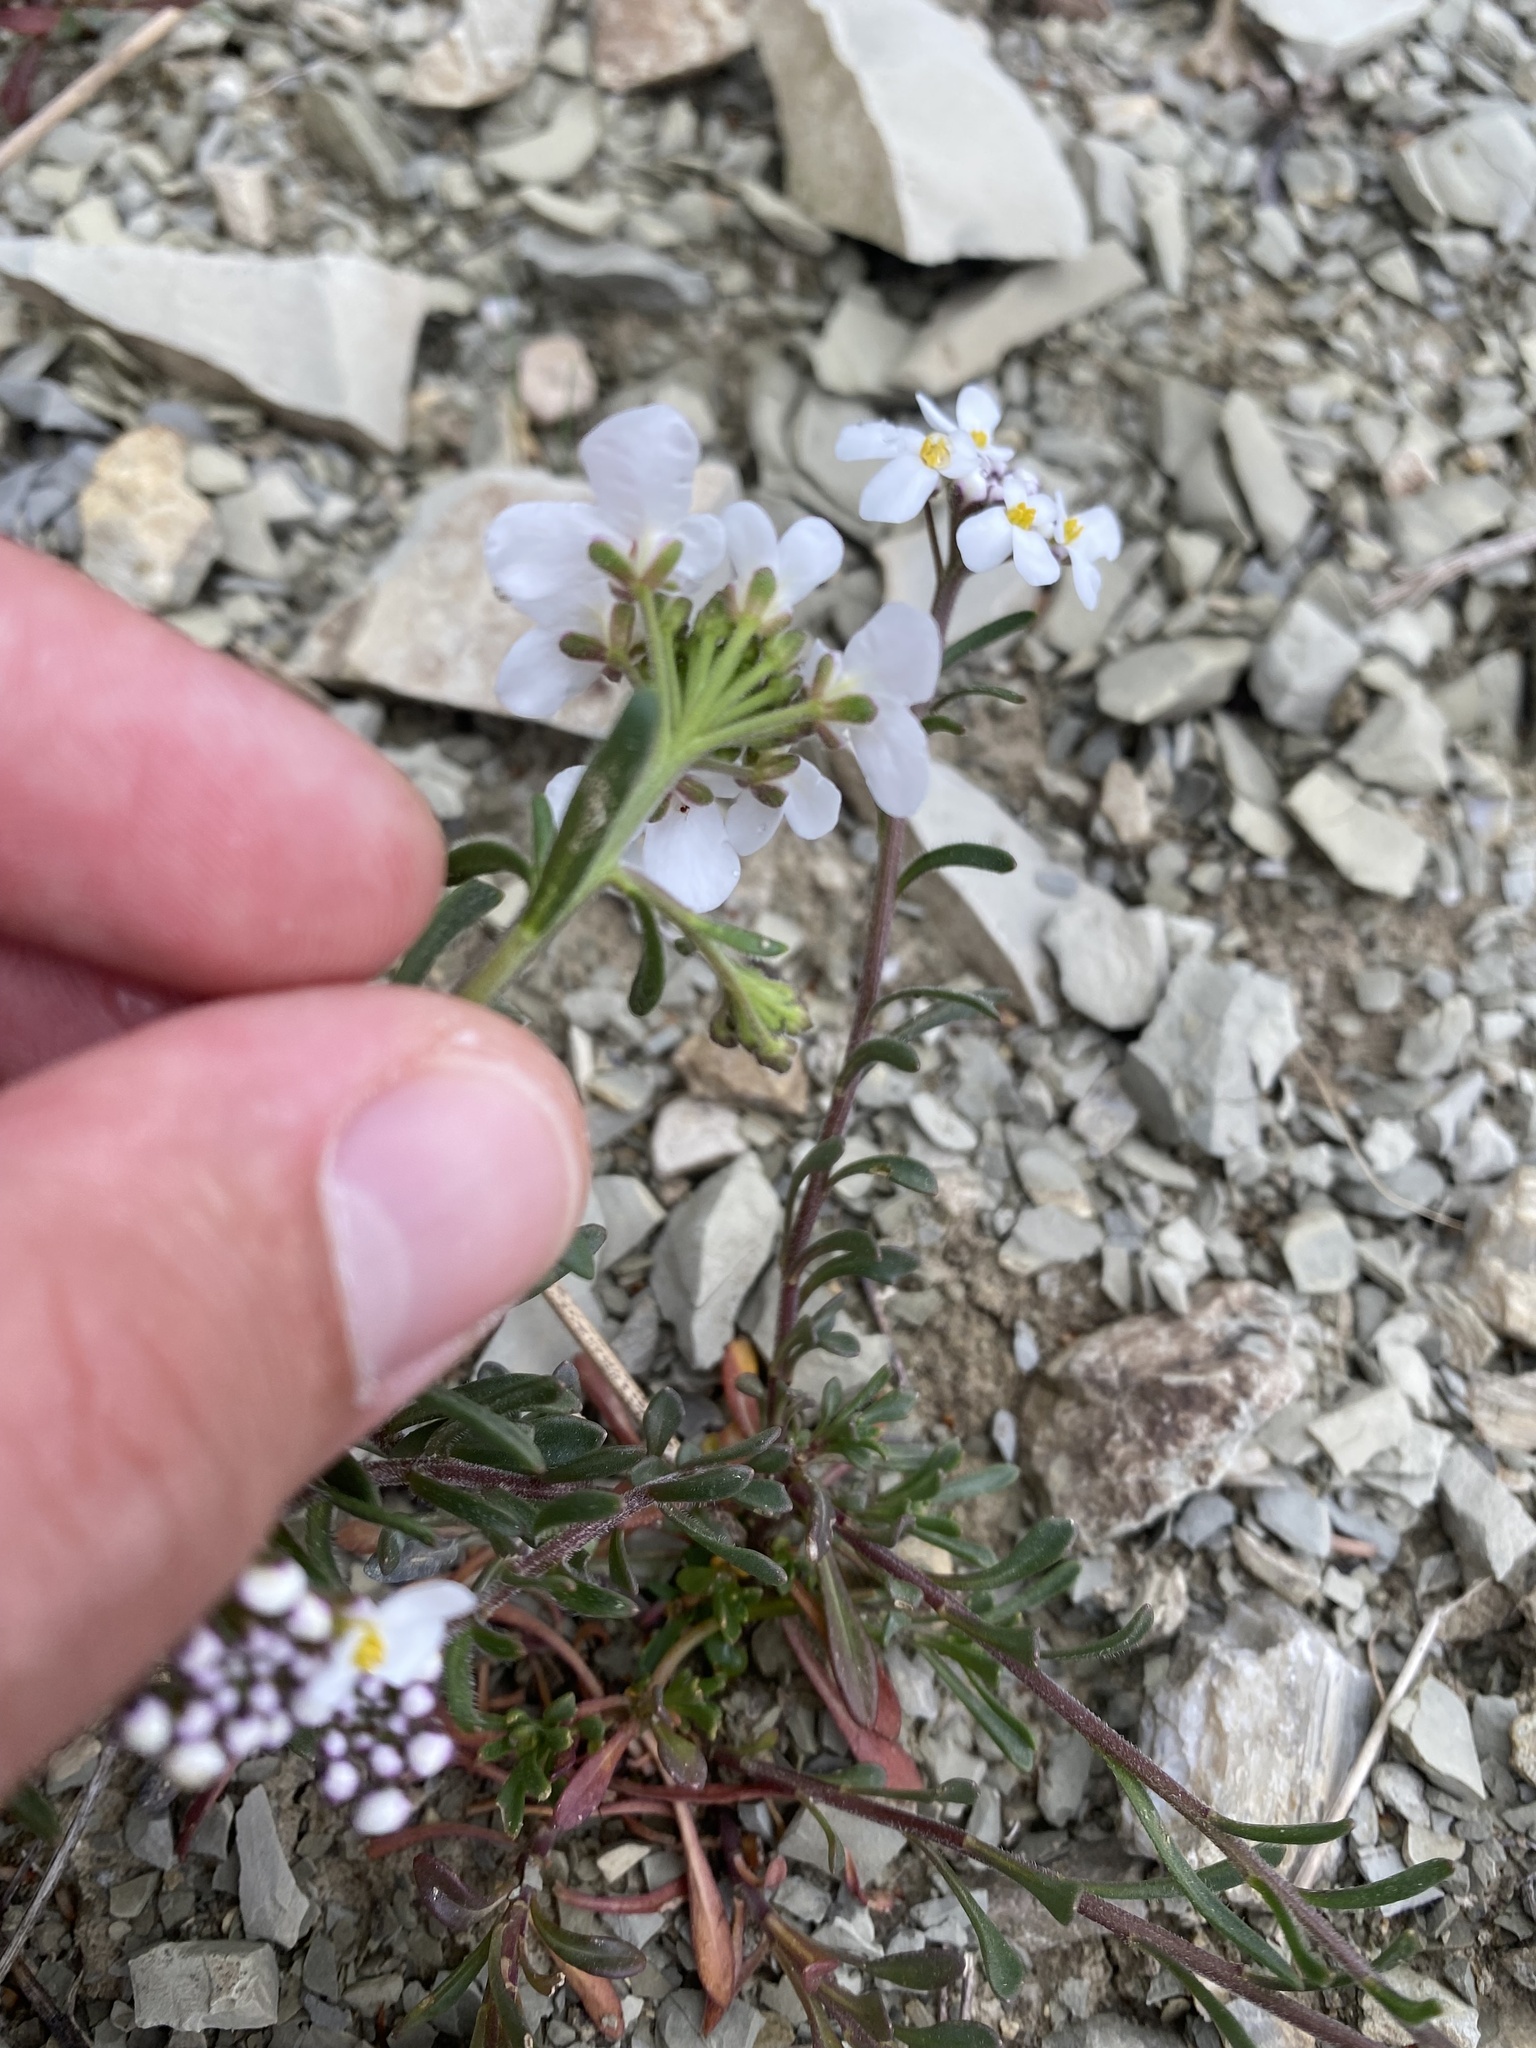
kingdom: Plantae
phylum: Tracheophyta
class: Magnoliopsida
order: Brassicales
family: Brassicaceae
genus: Iberis
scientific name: Iberis simplex
